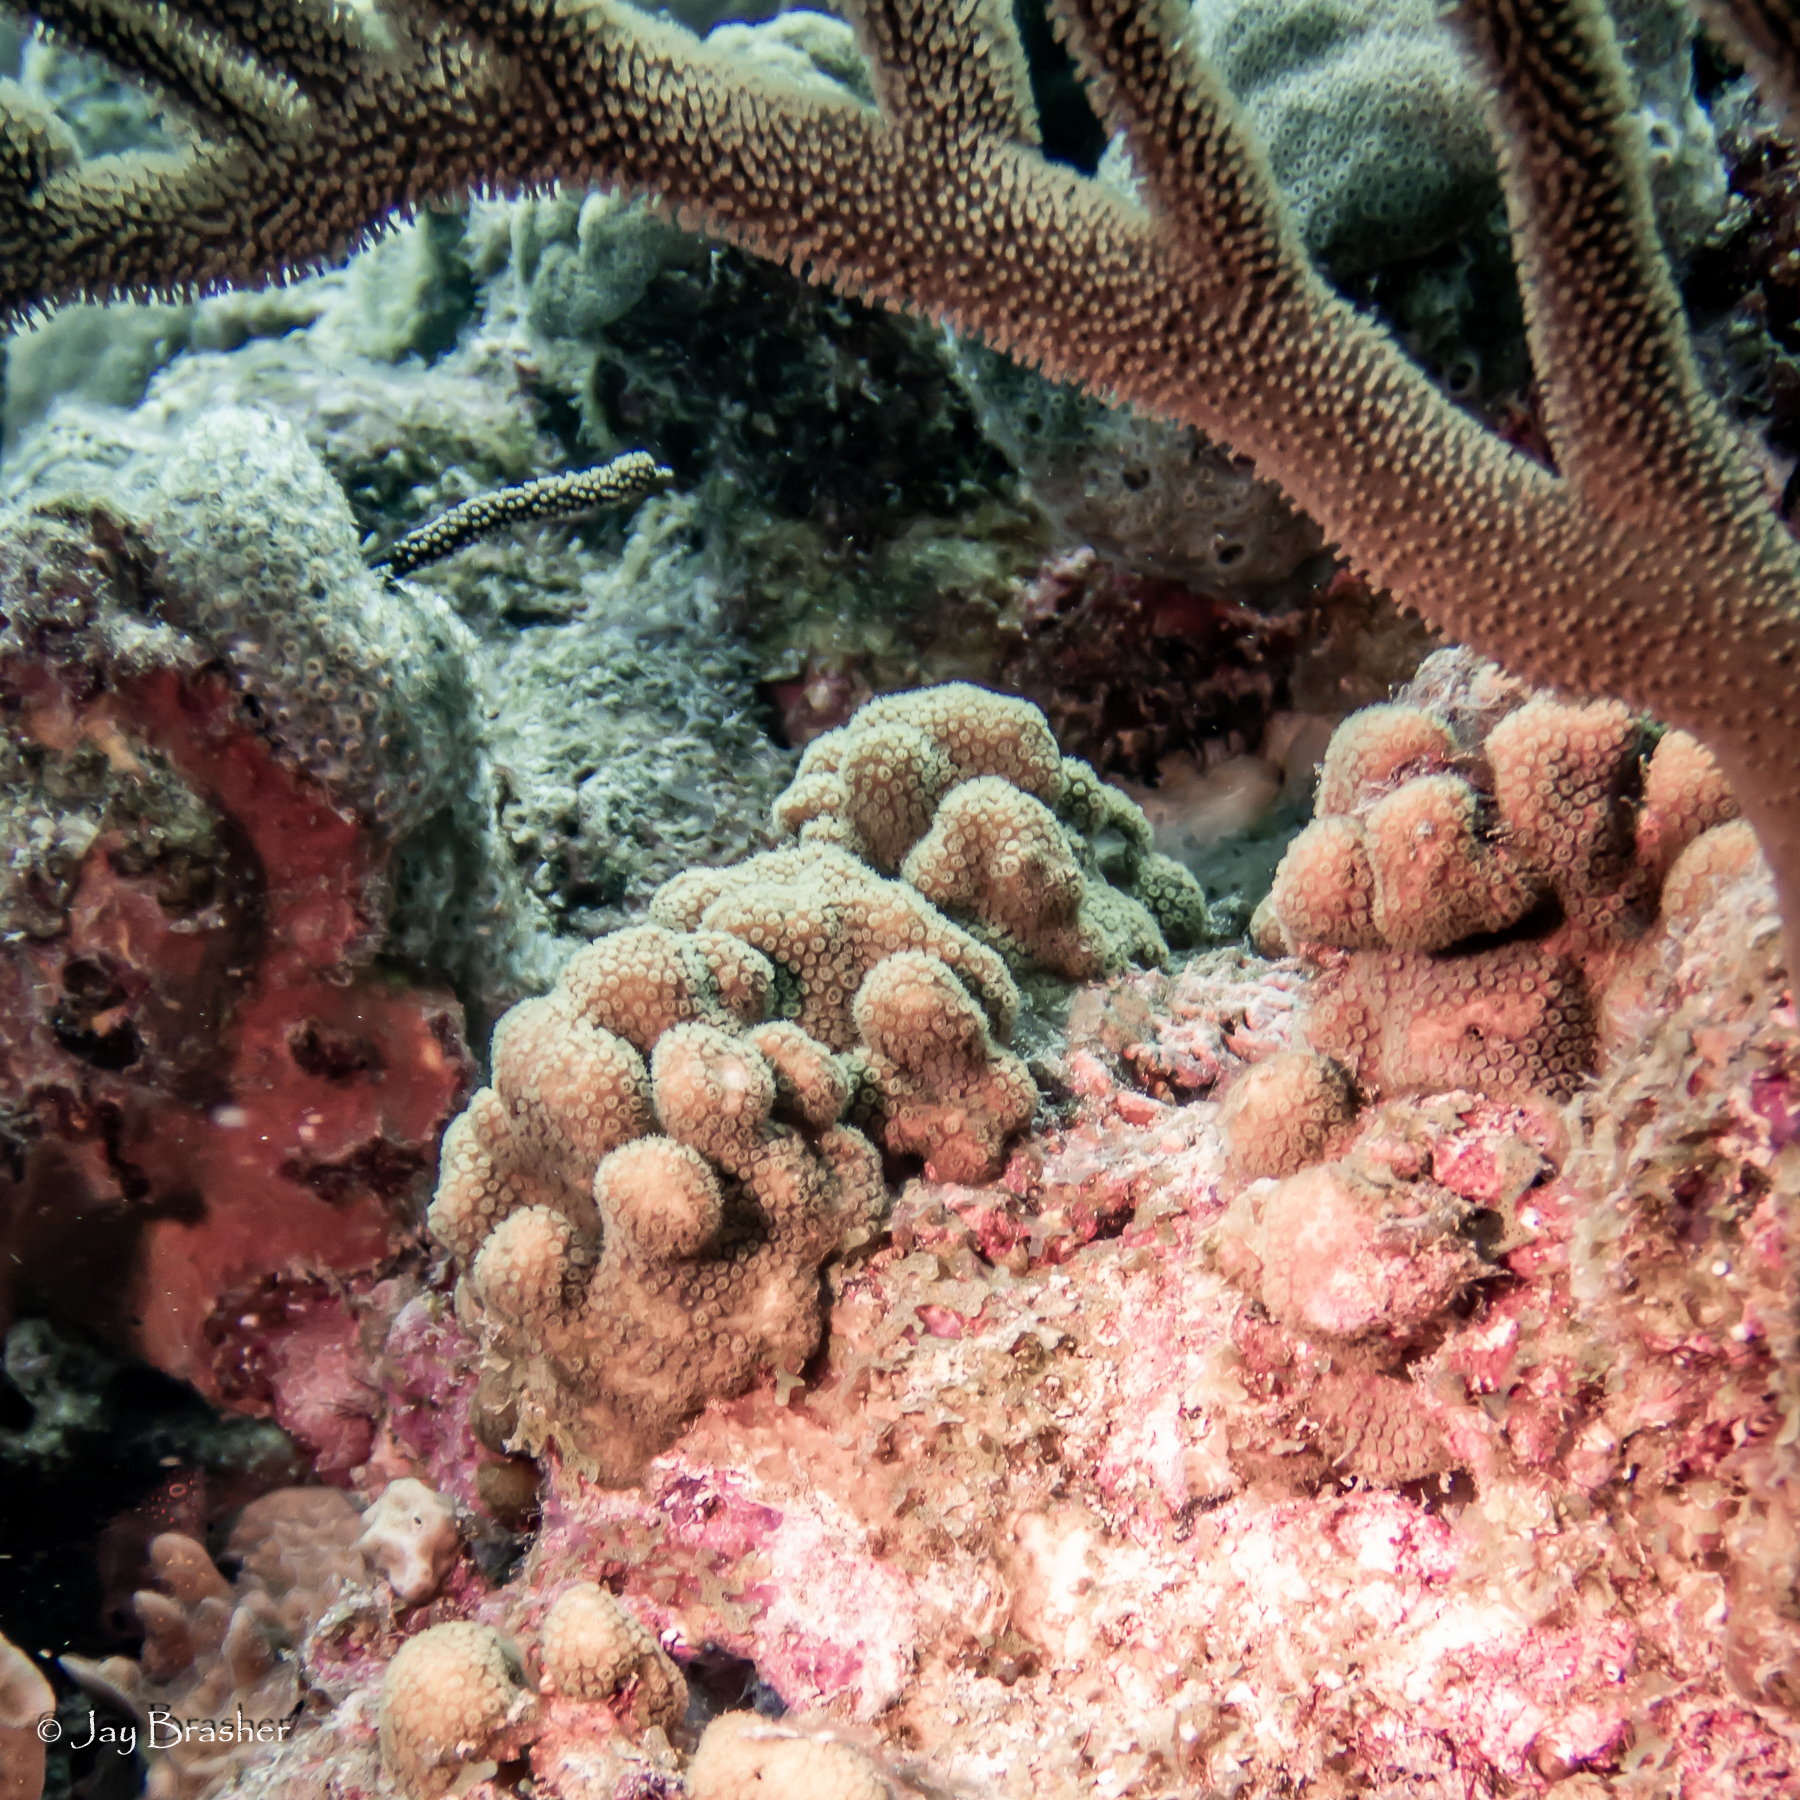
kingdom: Animalia
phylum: Cnidaria
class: Anthozoa
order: Scleractinia
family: Pocilloporidae
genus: Madracis
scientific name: Madracis decactis
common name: Ten-ray star coral
